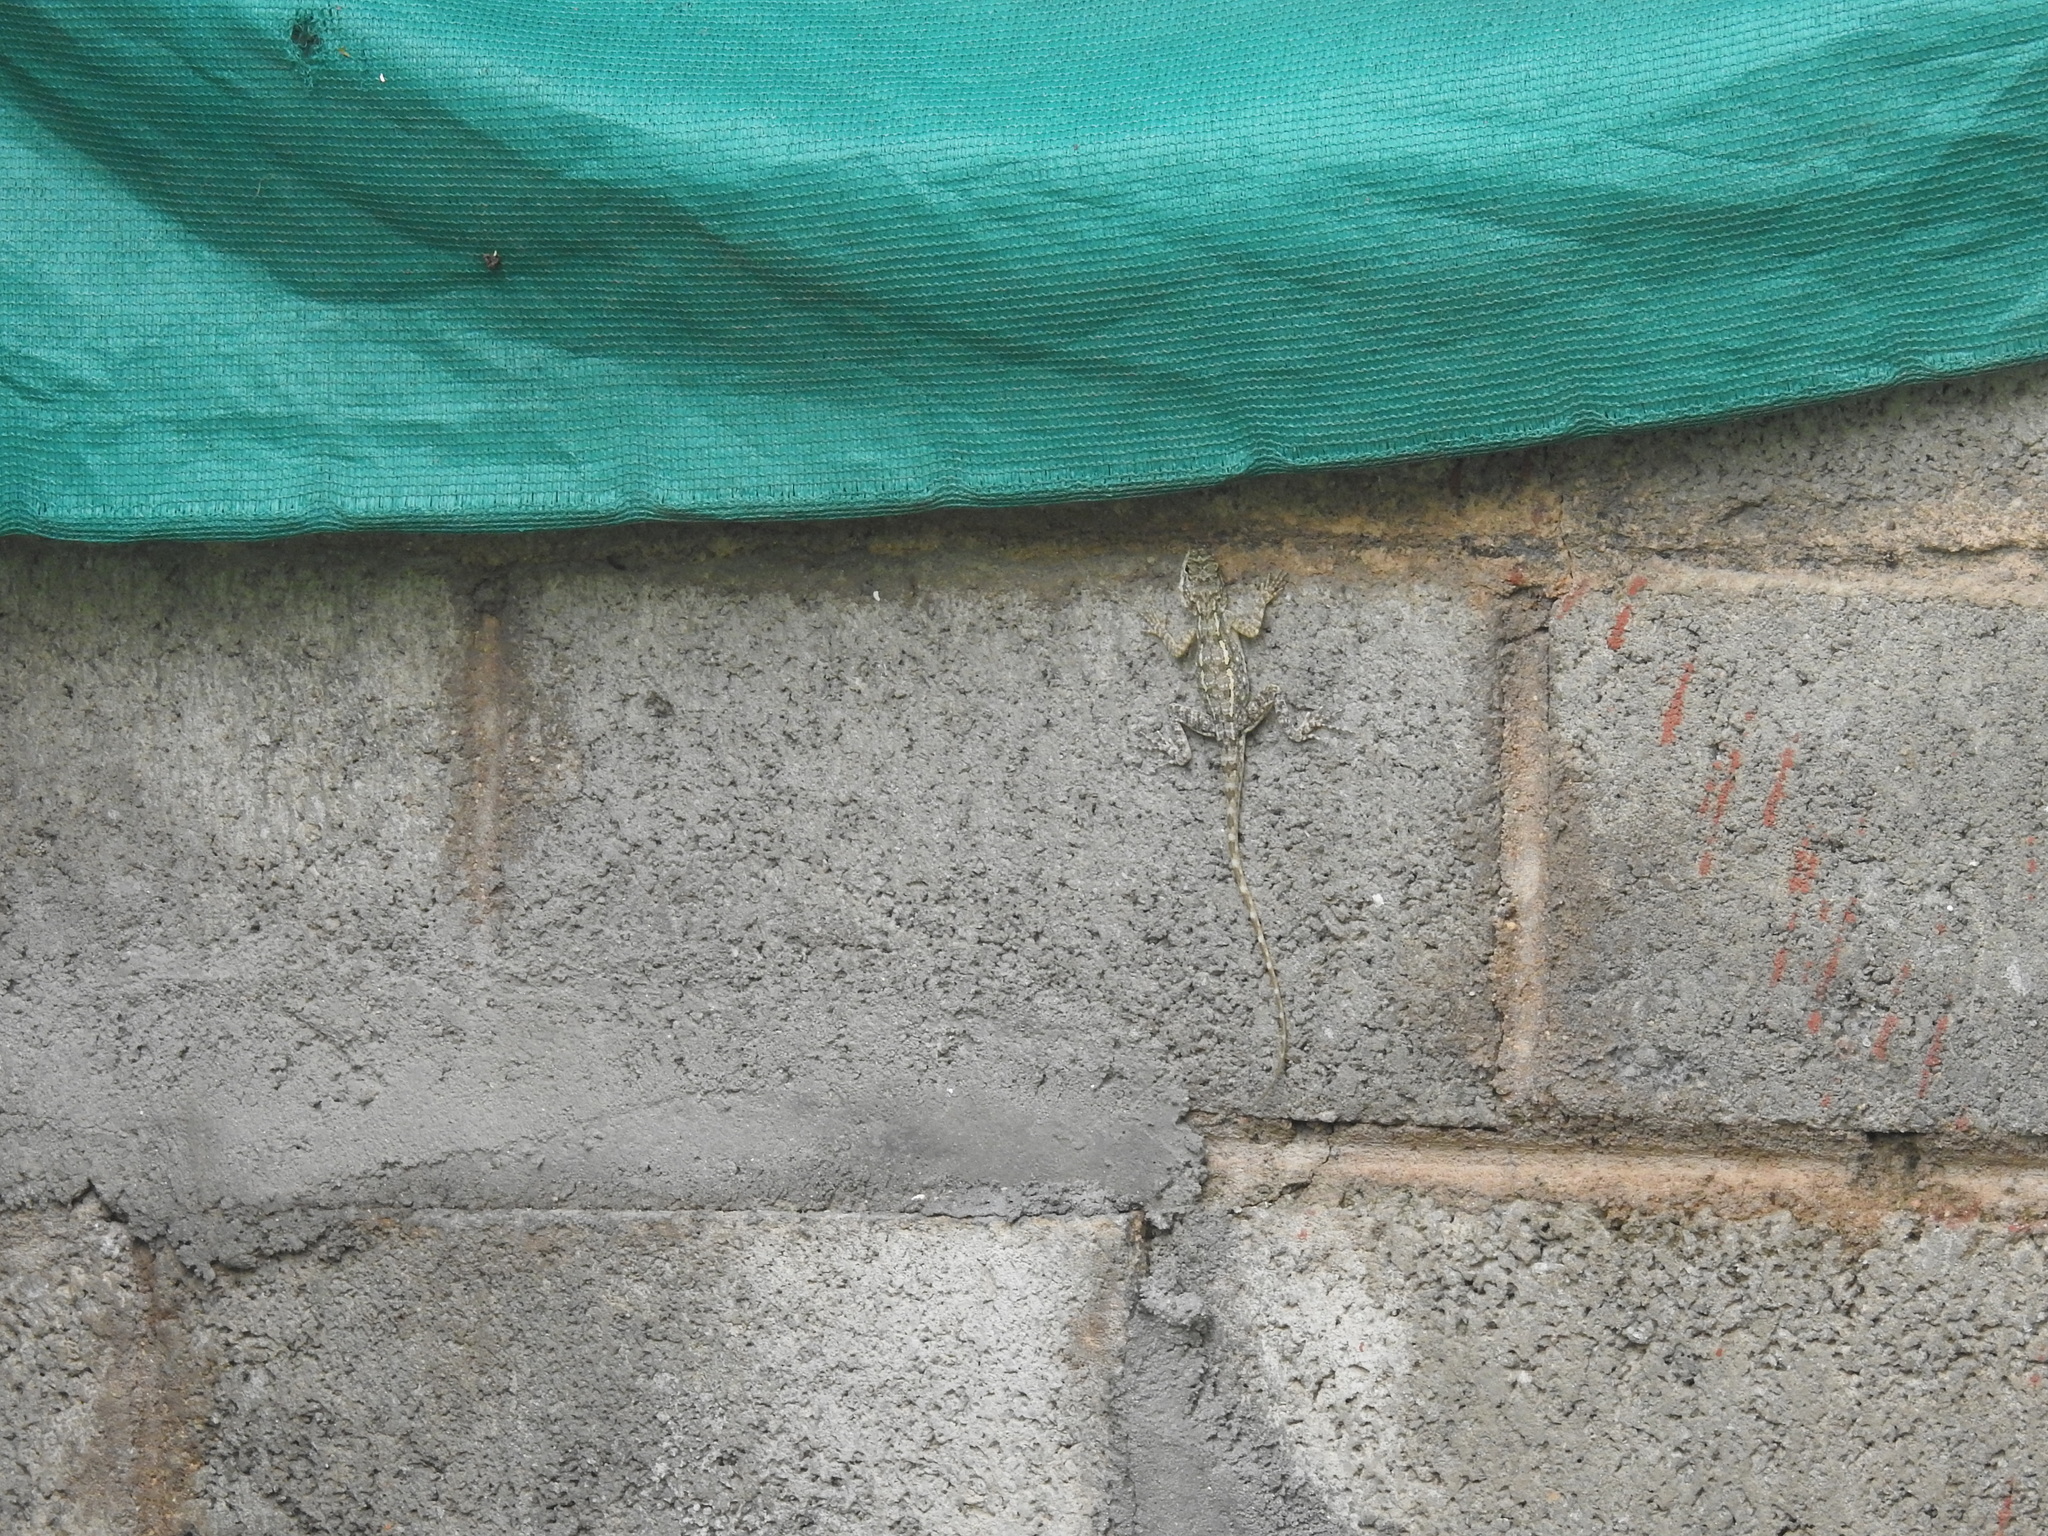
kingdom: Animalia
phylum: Chordata
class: Squamata
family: Agamidae
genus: Psammophilus
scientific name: Psammophilus dorsalis
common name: South indian rock agama
